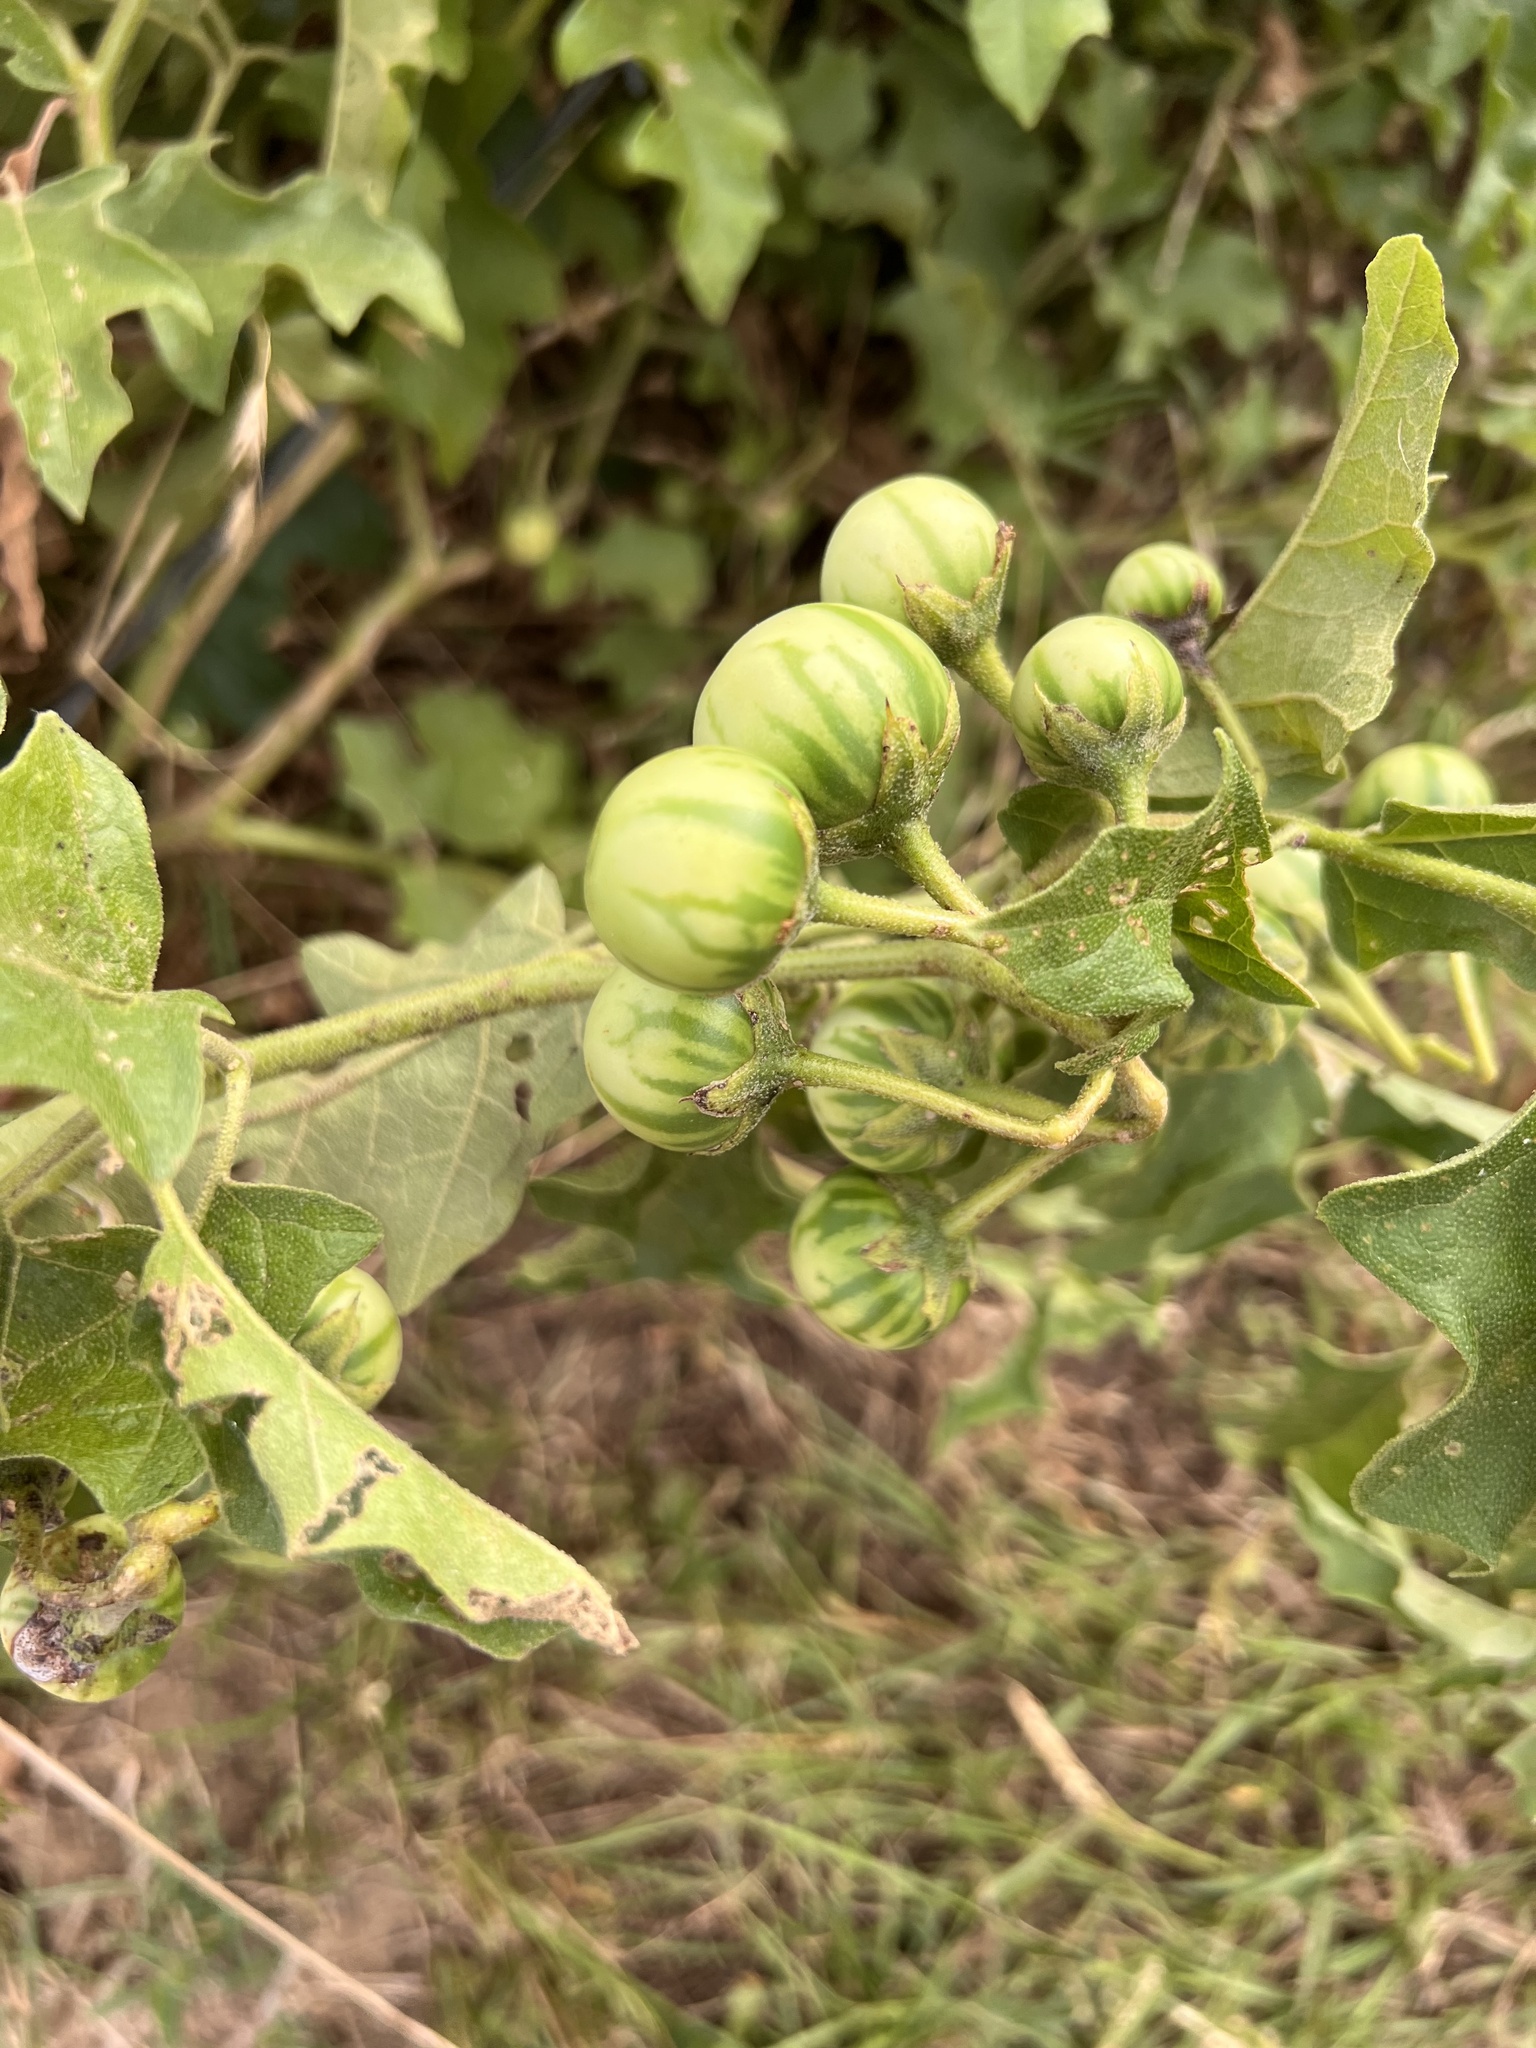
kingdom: Plantae
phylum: Tracheophyta
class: Magnoliopsida
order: Solanales
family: Solanaceae
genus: Solanum
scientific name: Solanum dimidiatum
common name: Carolina horse-nettle
